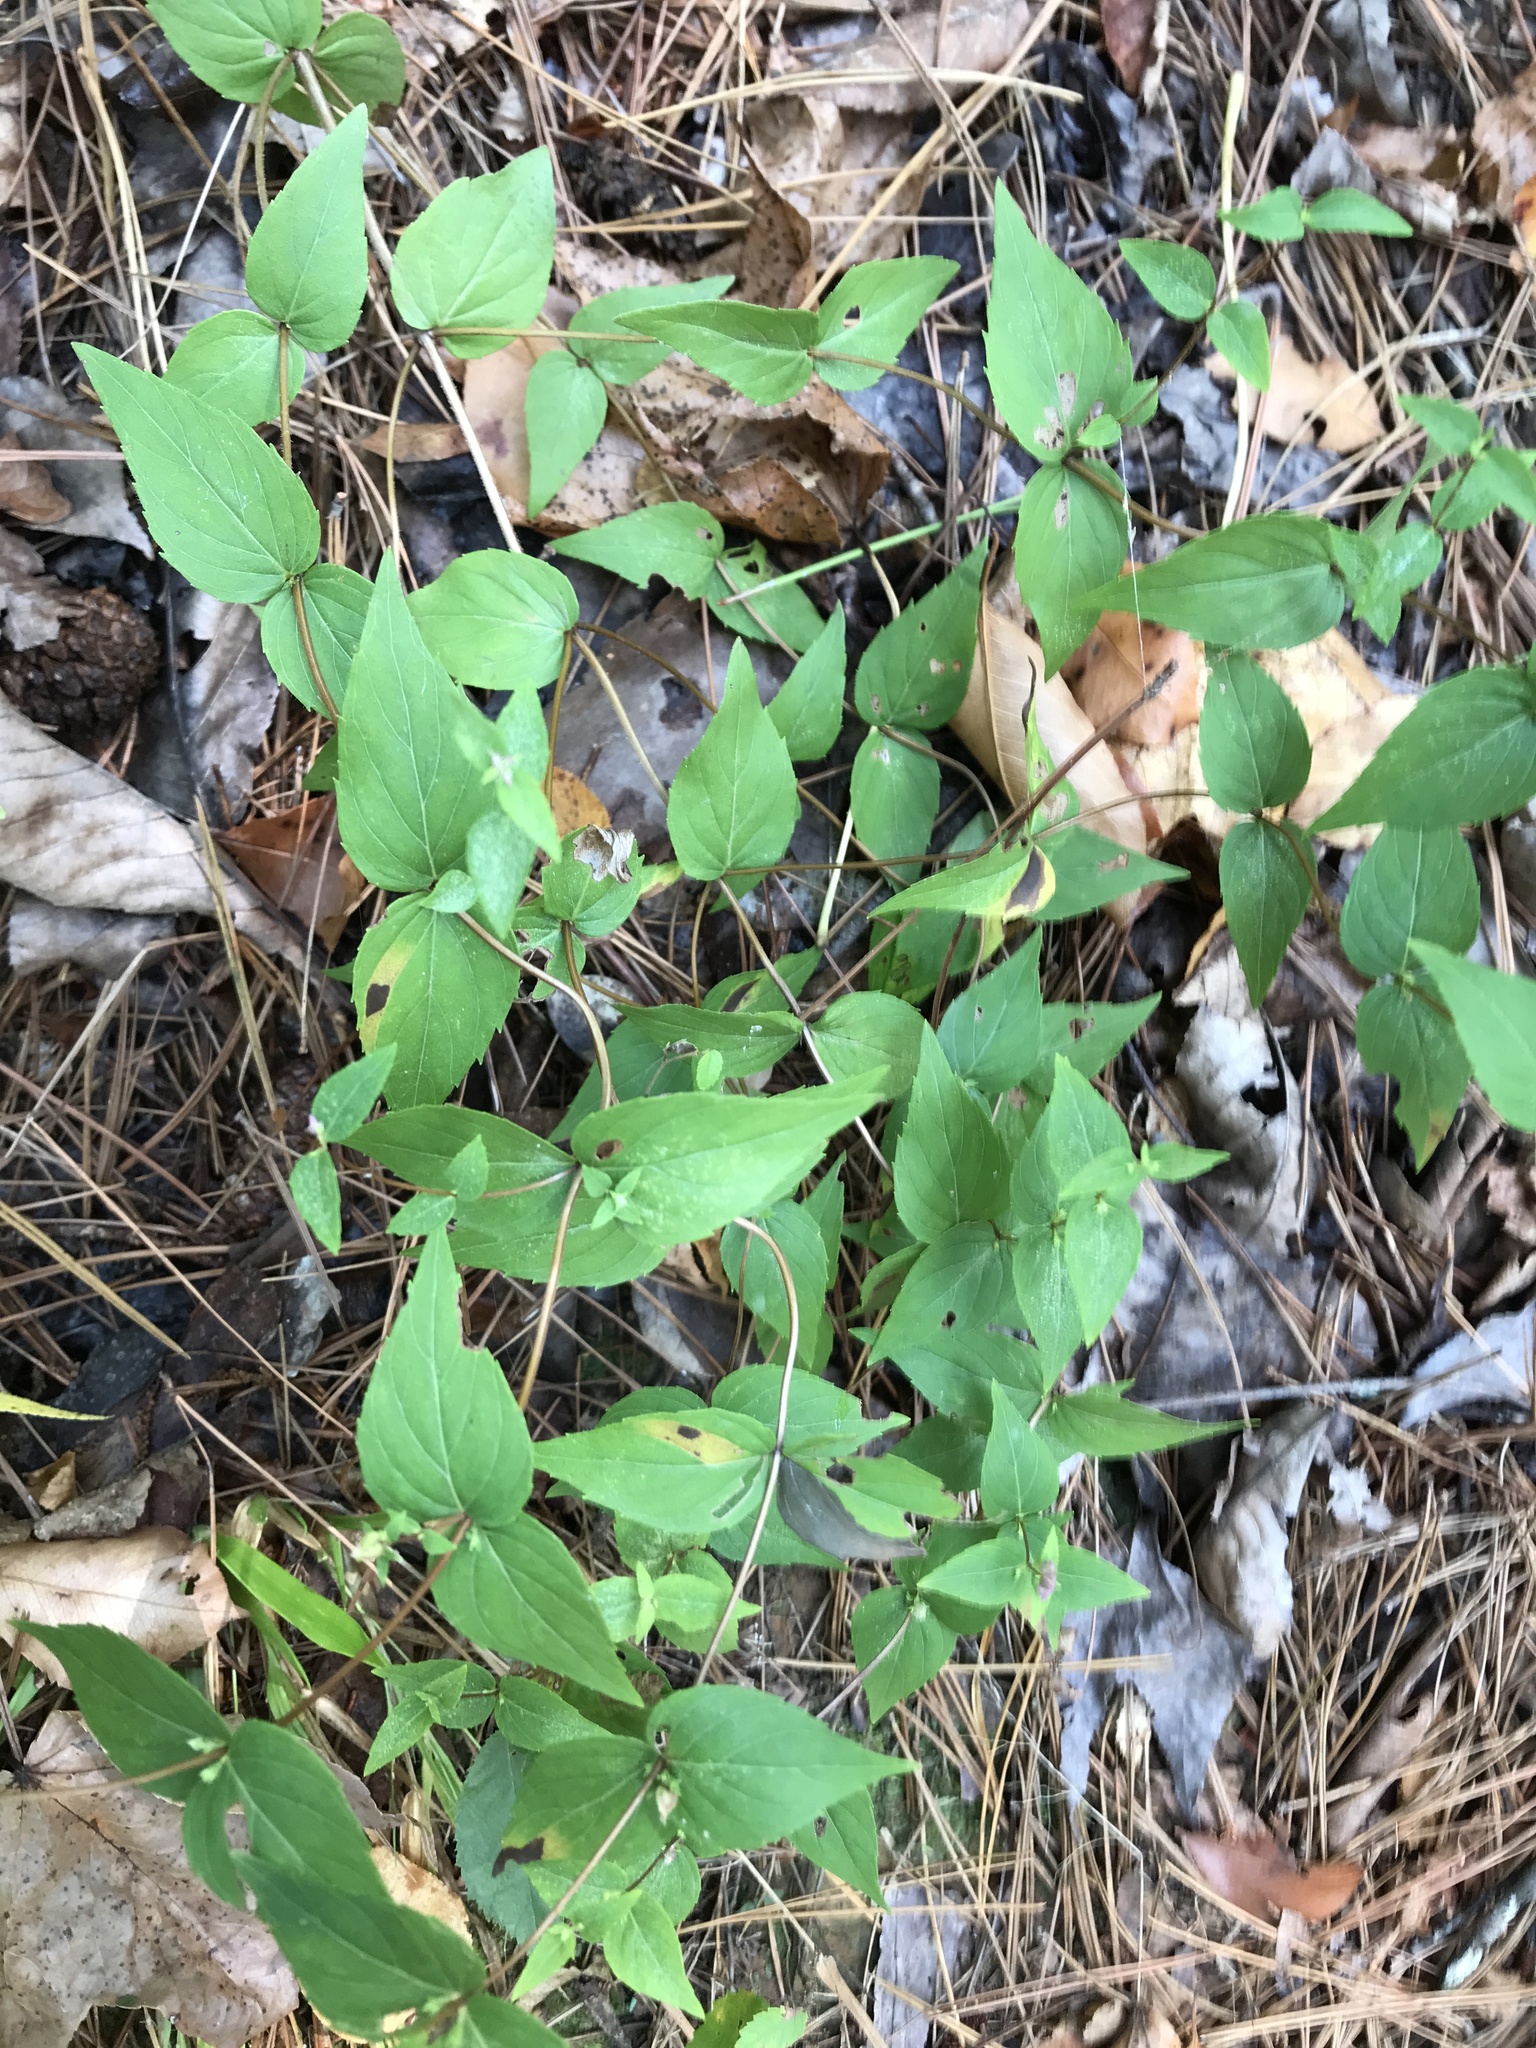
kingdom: Plantae
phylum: Tracheophyta
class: Magnoliopsida
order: Lamiales
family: Lamiaceae
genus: Cunila
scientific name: Cunila origanoides
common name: American dittany
